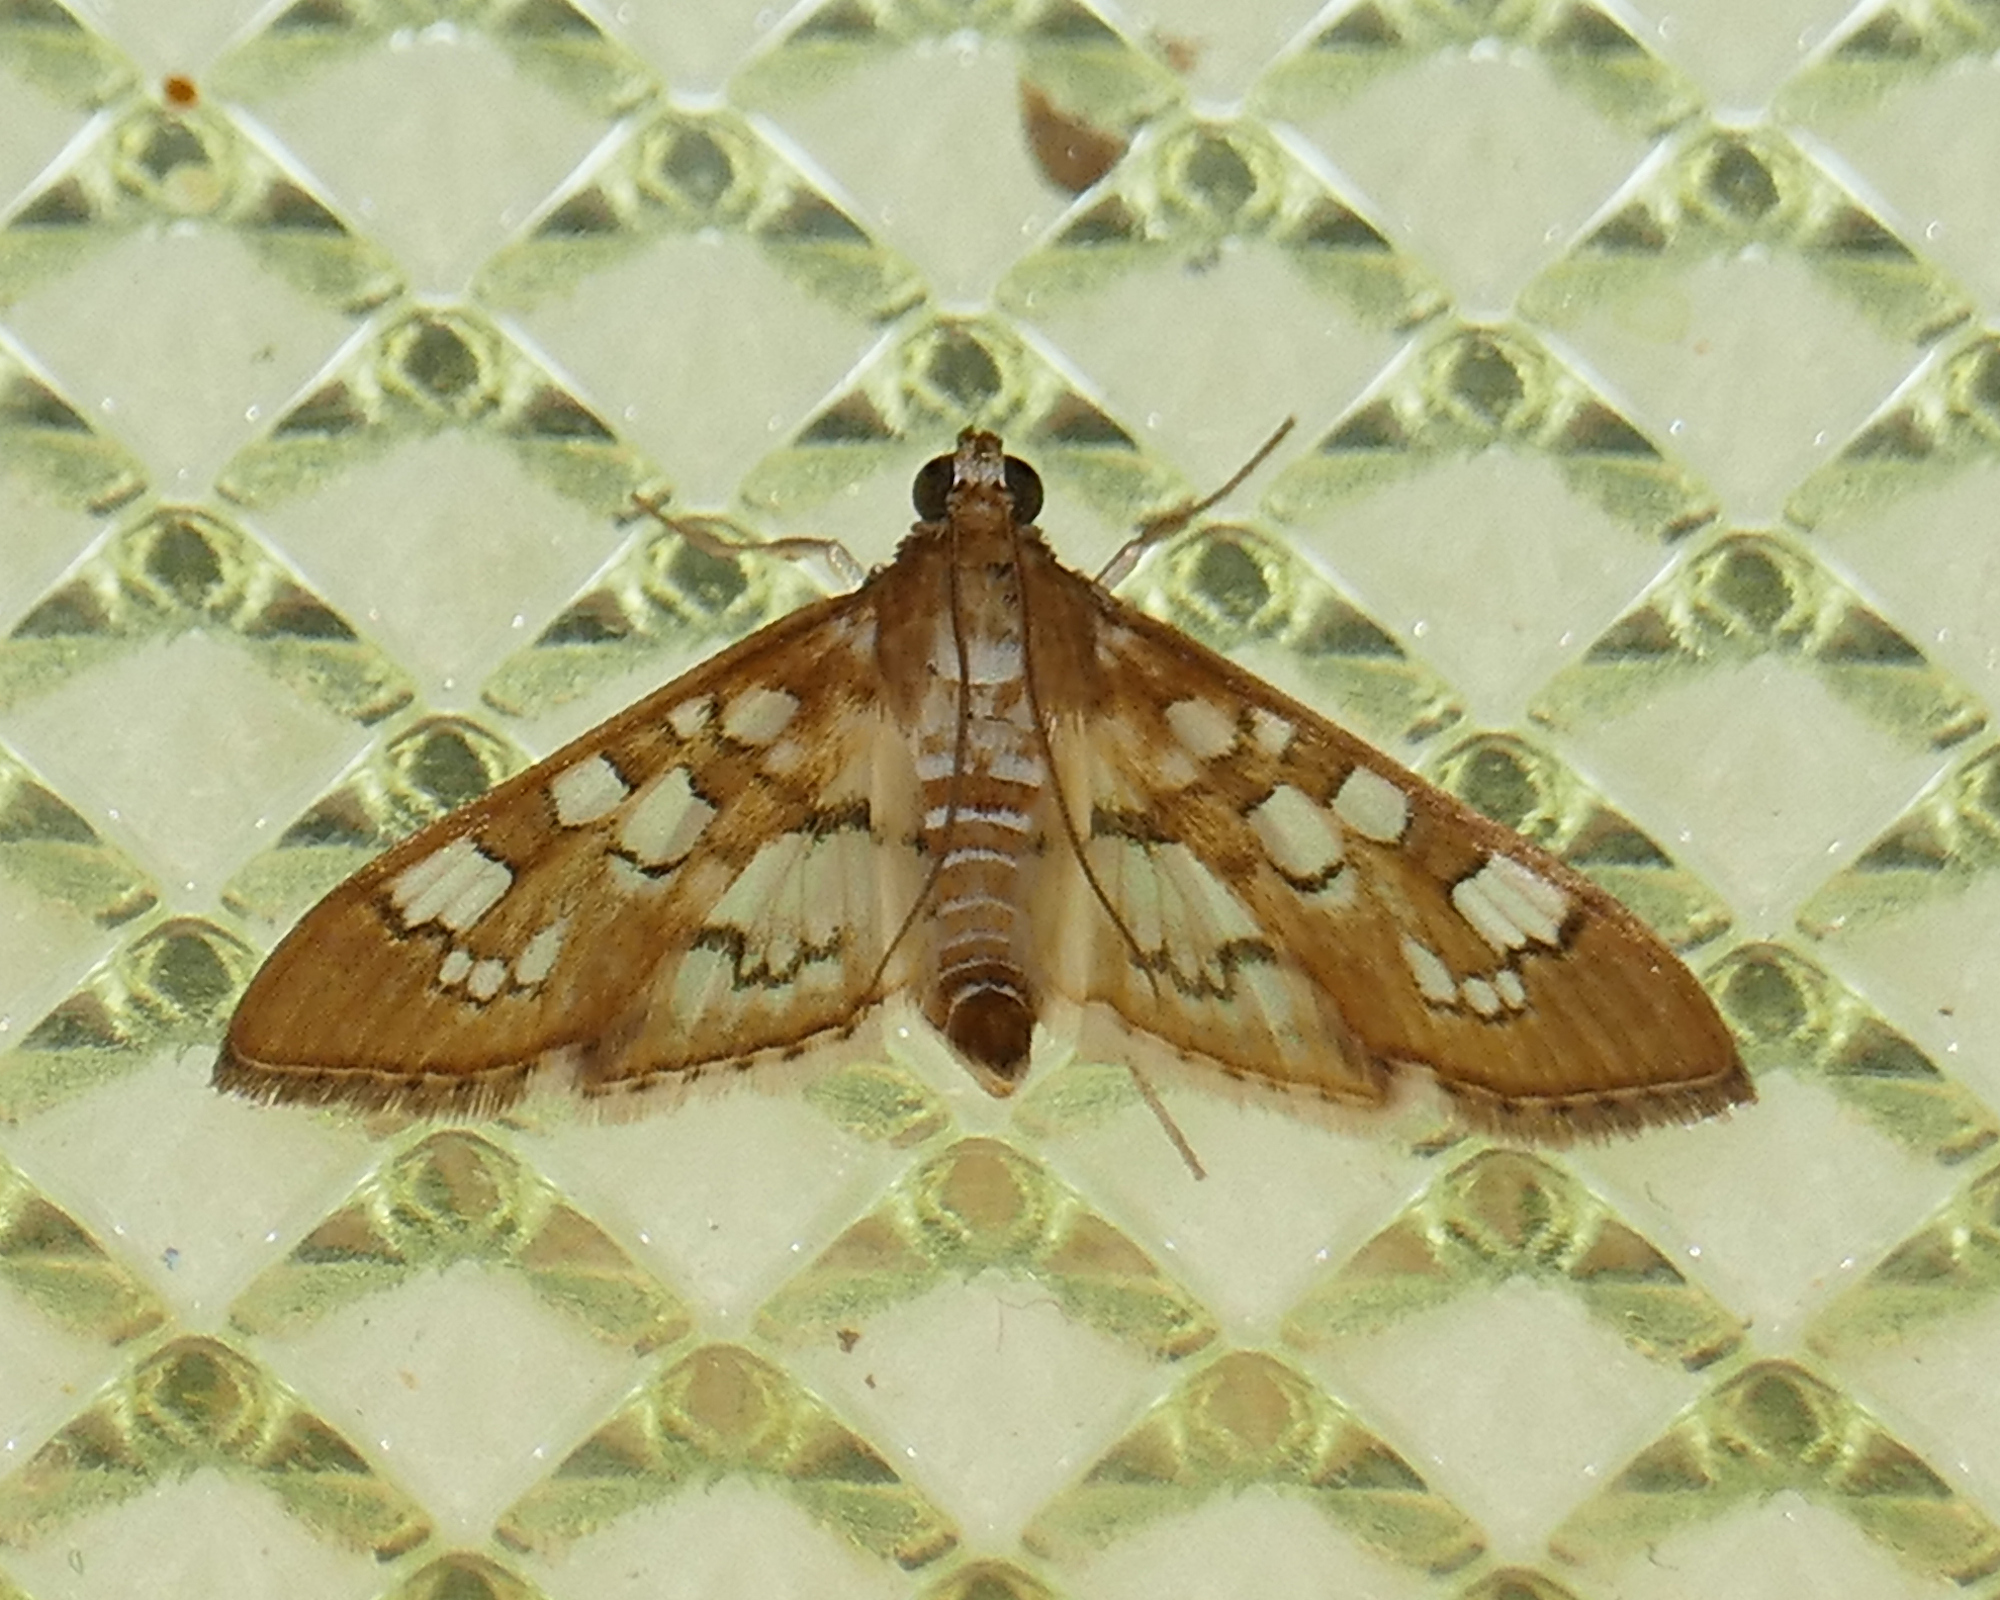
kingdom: Animalia
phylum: Arthropoda
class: Insecta
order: Lepidoptera
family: Crambidae
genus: Samea
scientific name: Samea baccatalis
